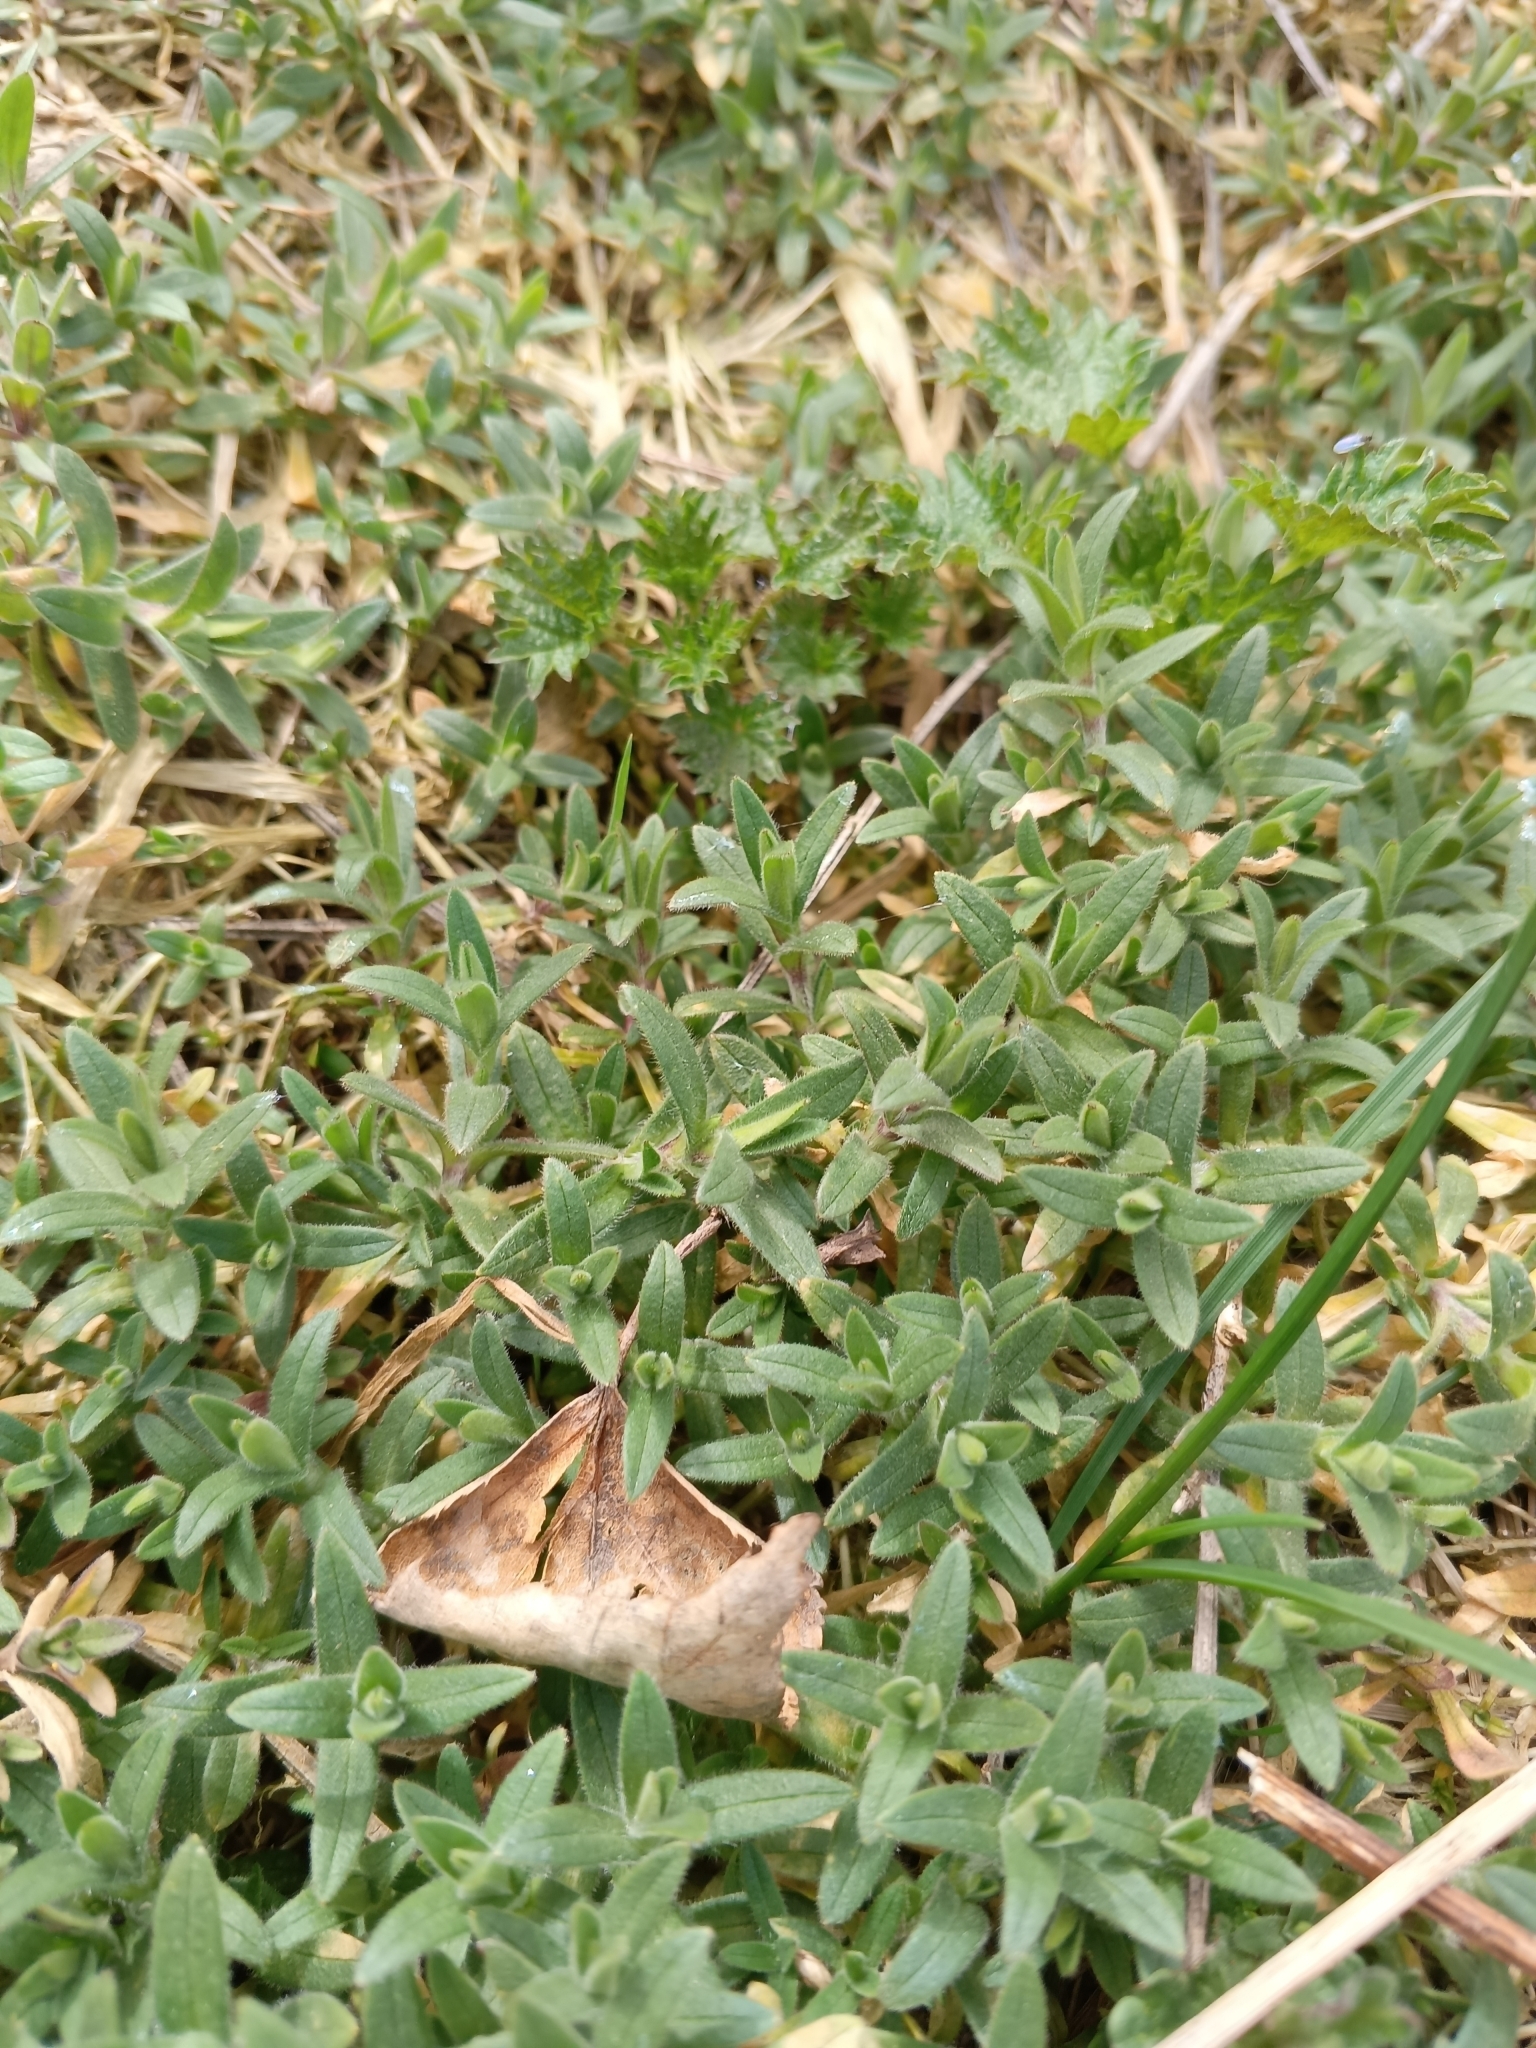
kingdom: Plantae
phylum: Tracheophyta
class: Magnoliopsida
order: Caryophyllales
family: Caryophyllaceae
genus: Cerastium
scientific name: Cerastium arvense
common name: Field mouse-ear
